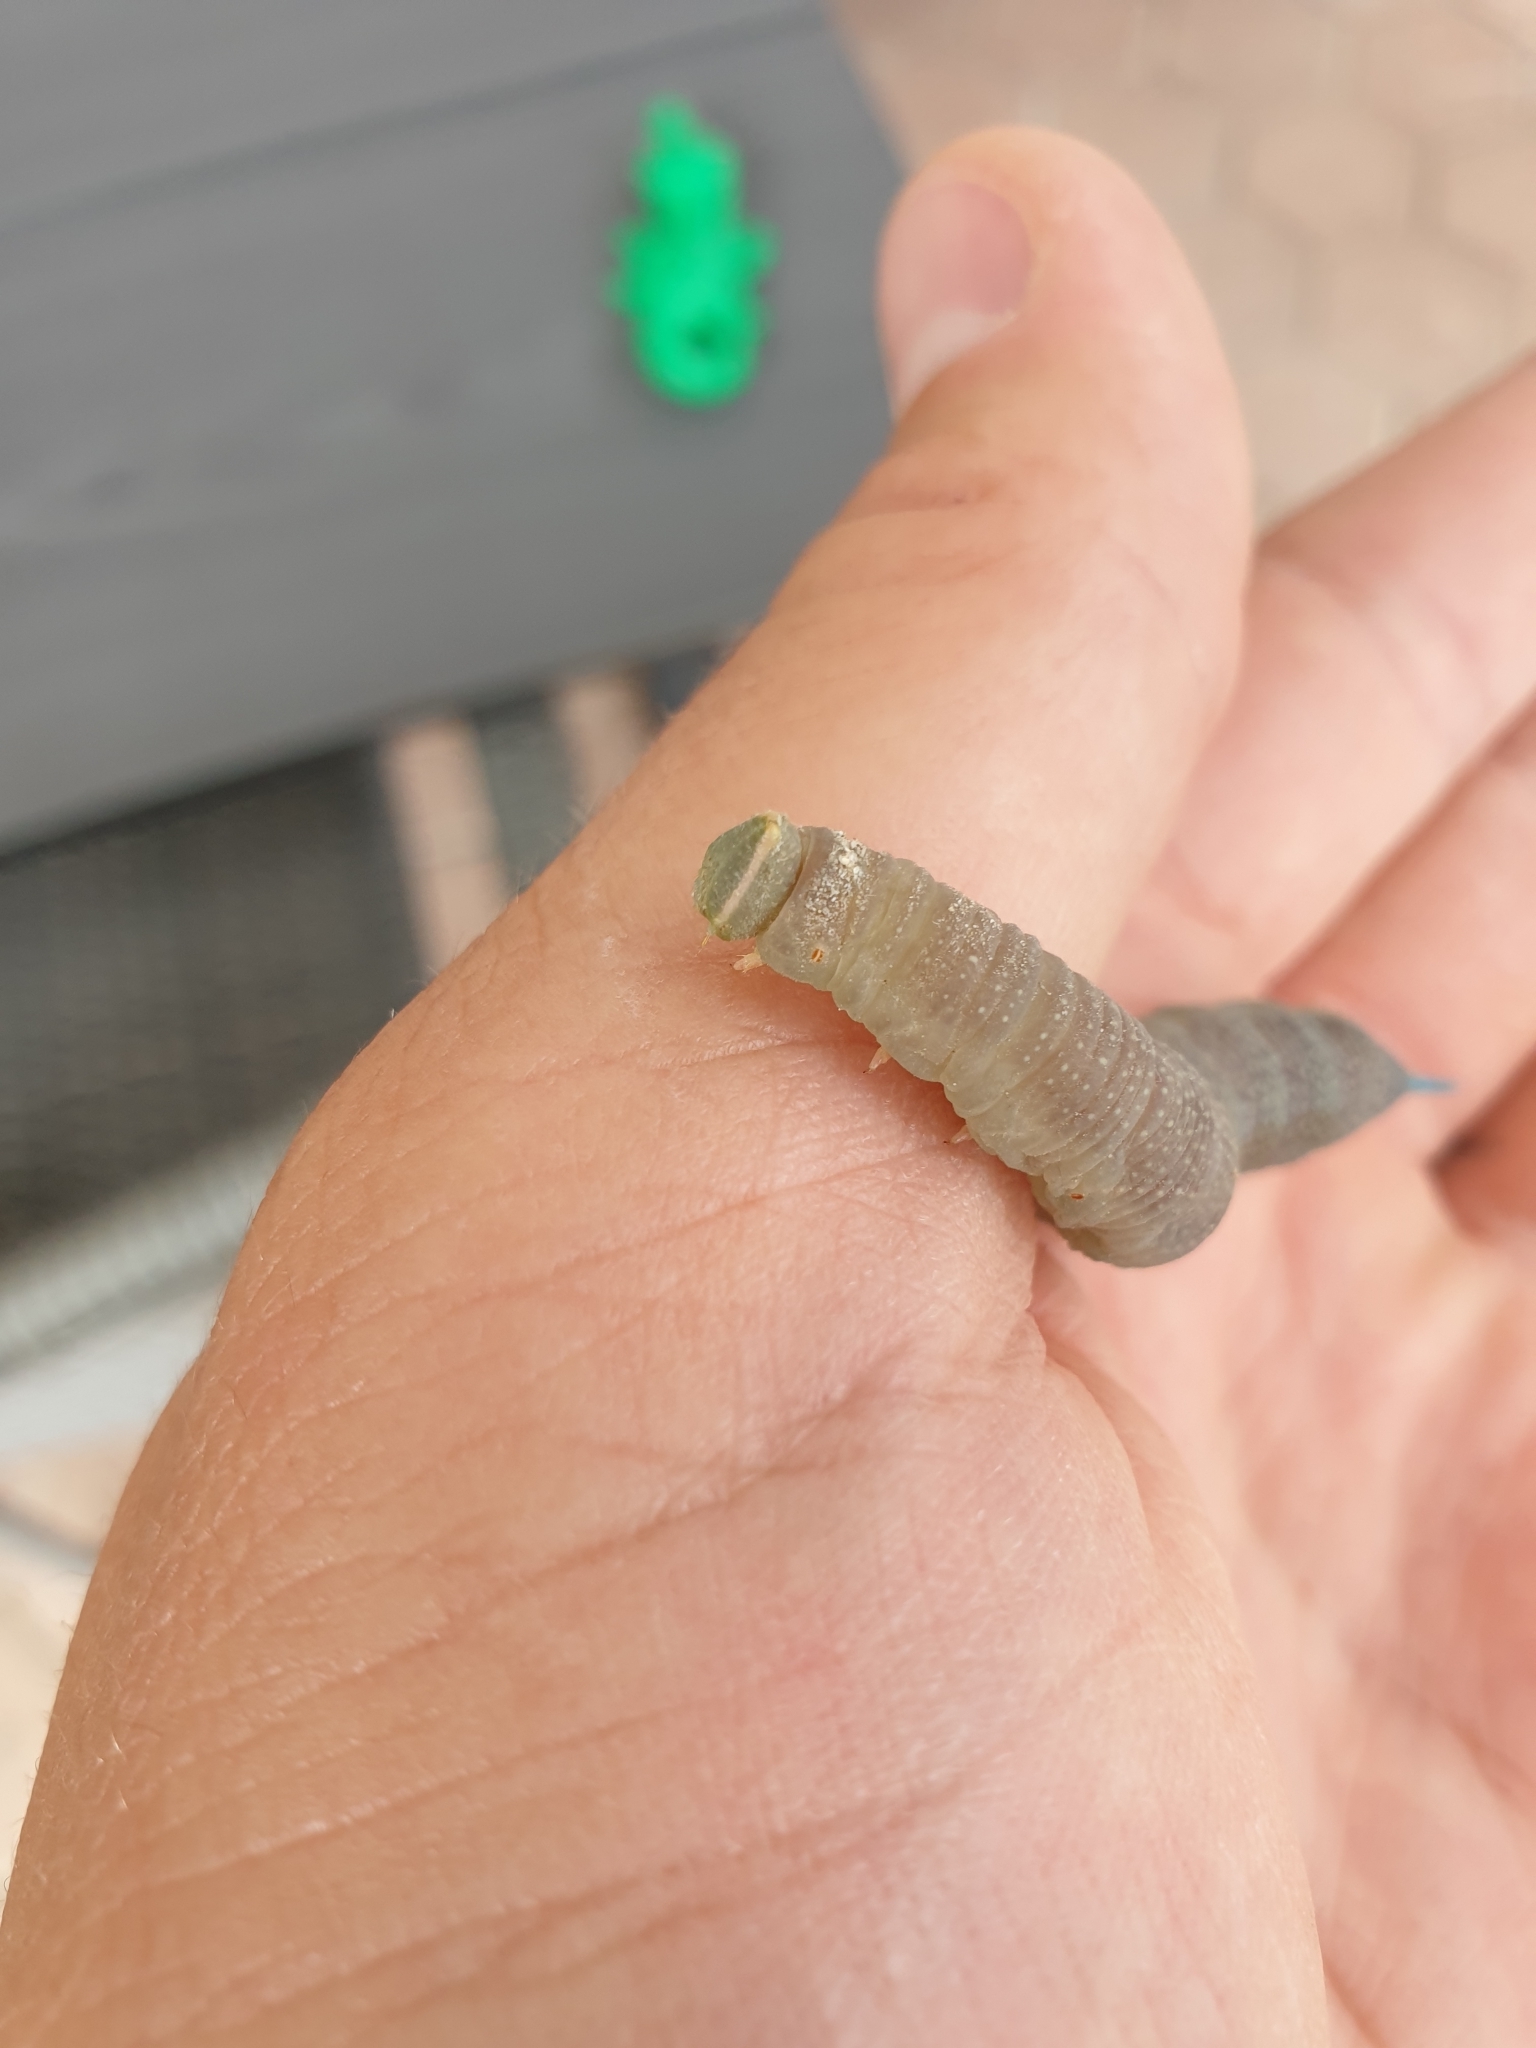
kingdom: Animalia
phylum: Arthropoda
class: Insecta
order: Lepidoptera
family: Sphingidae
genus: Mimas
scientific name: Mimas tiliae
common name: Lime hawk-moth
